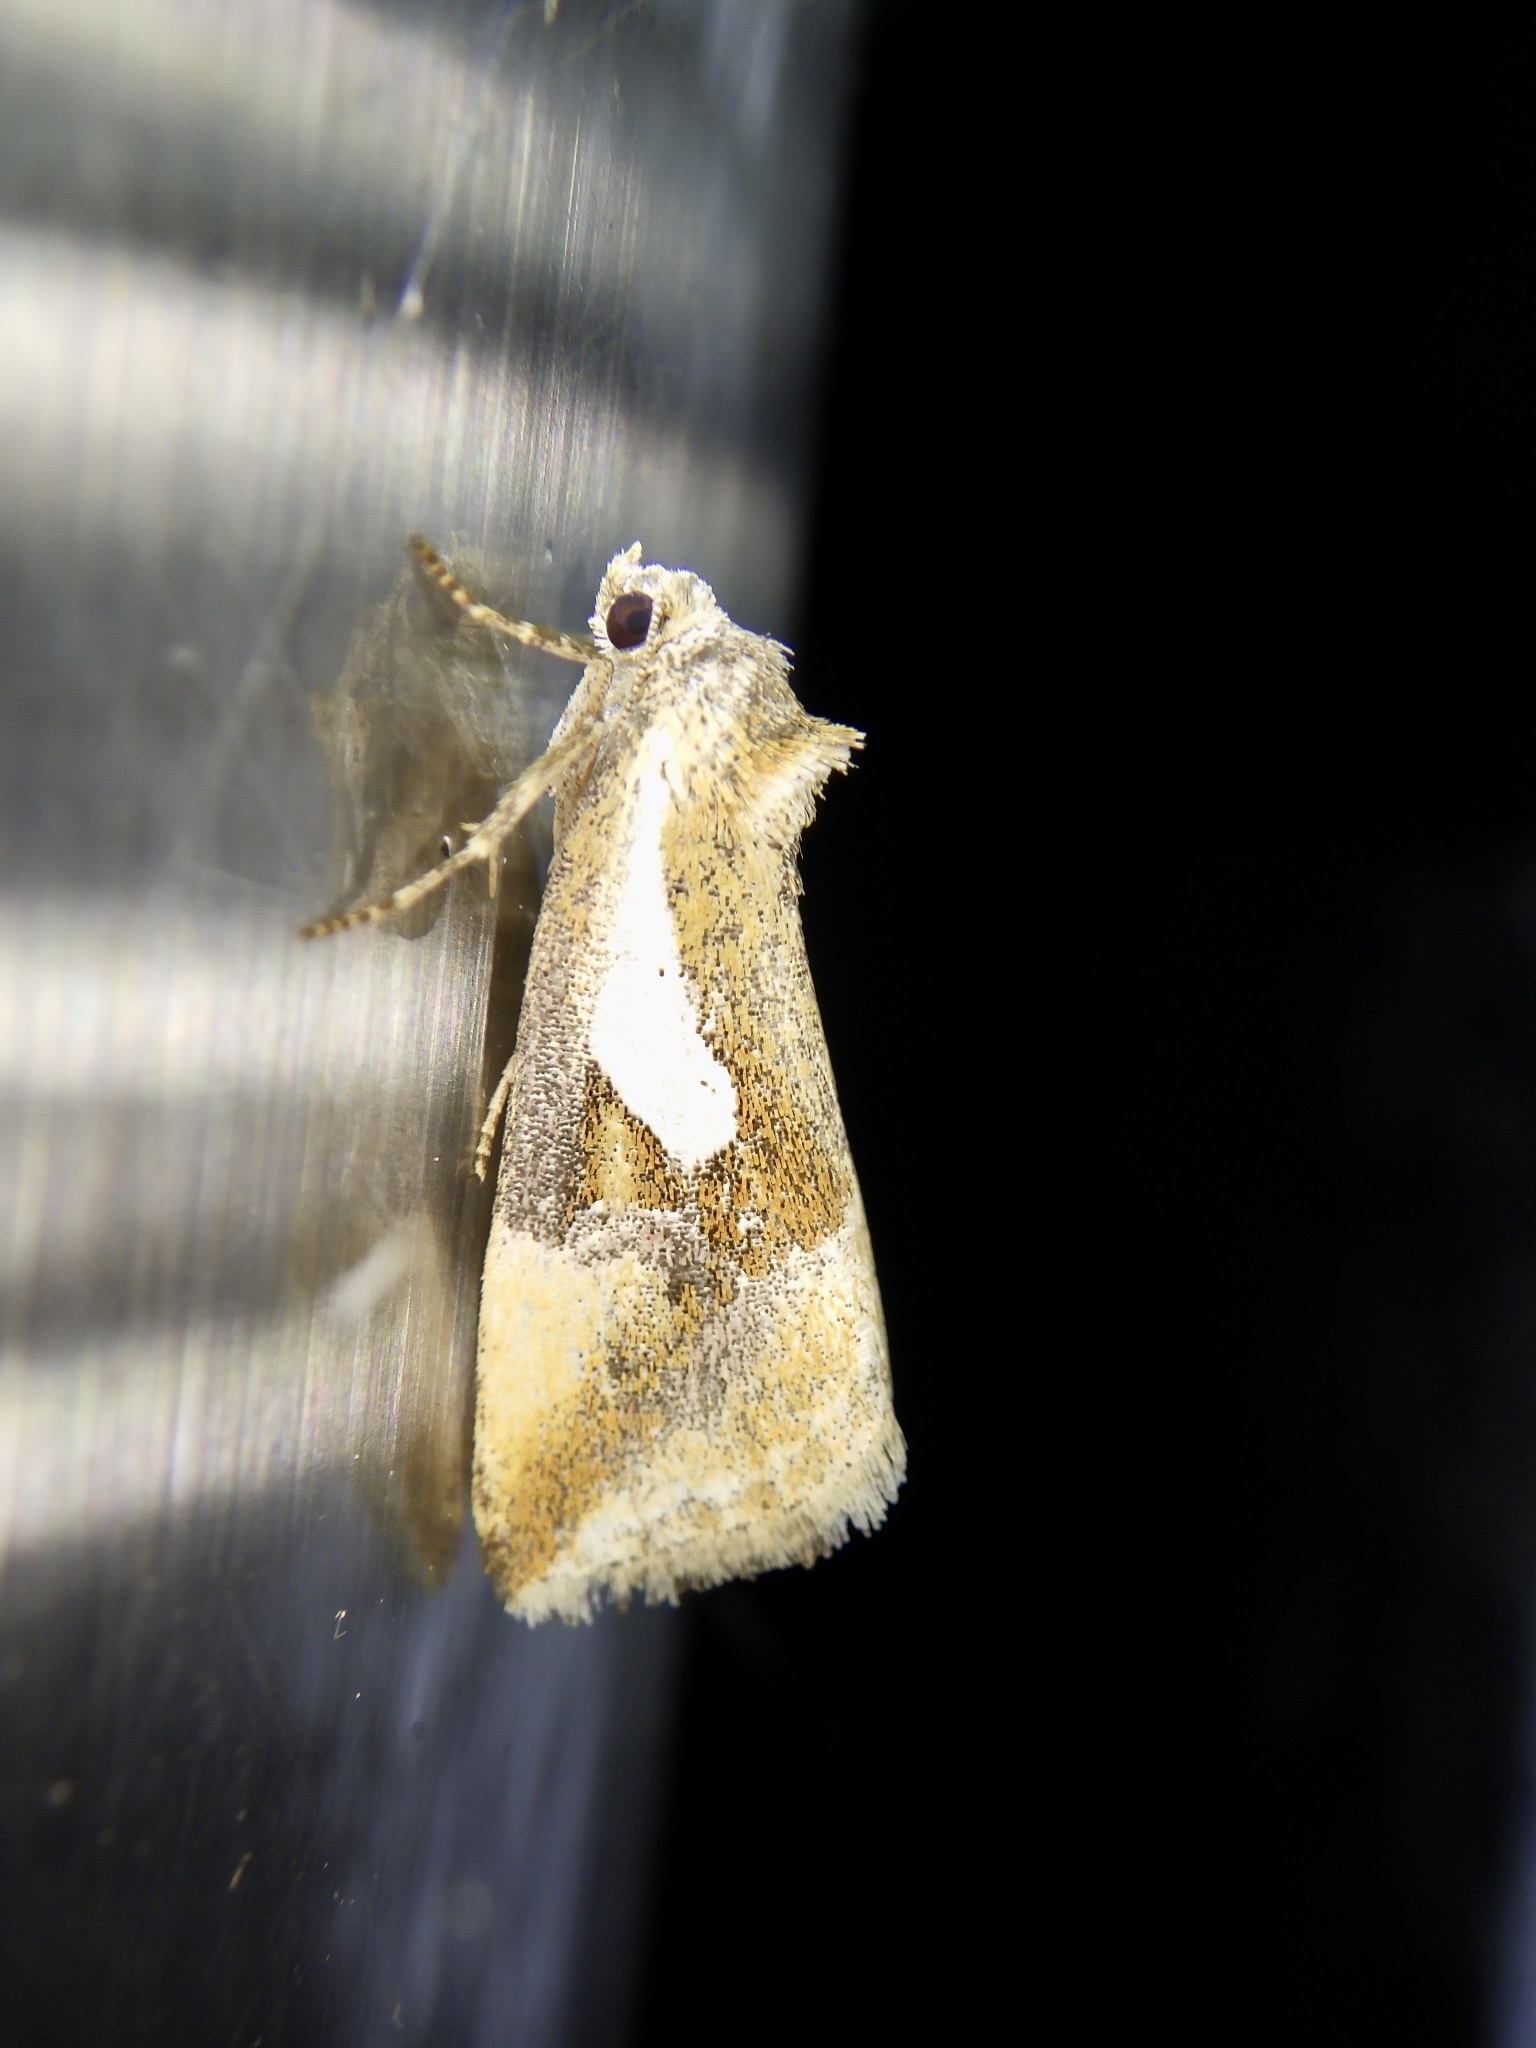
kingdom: Animalia
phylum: Arthropoda
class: Insecta
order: Lepidoptera
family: Noctuidae
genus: Micardia
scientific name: Micardia argentata
